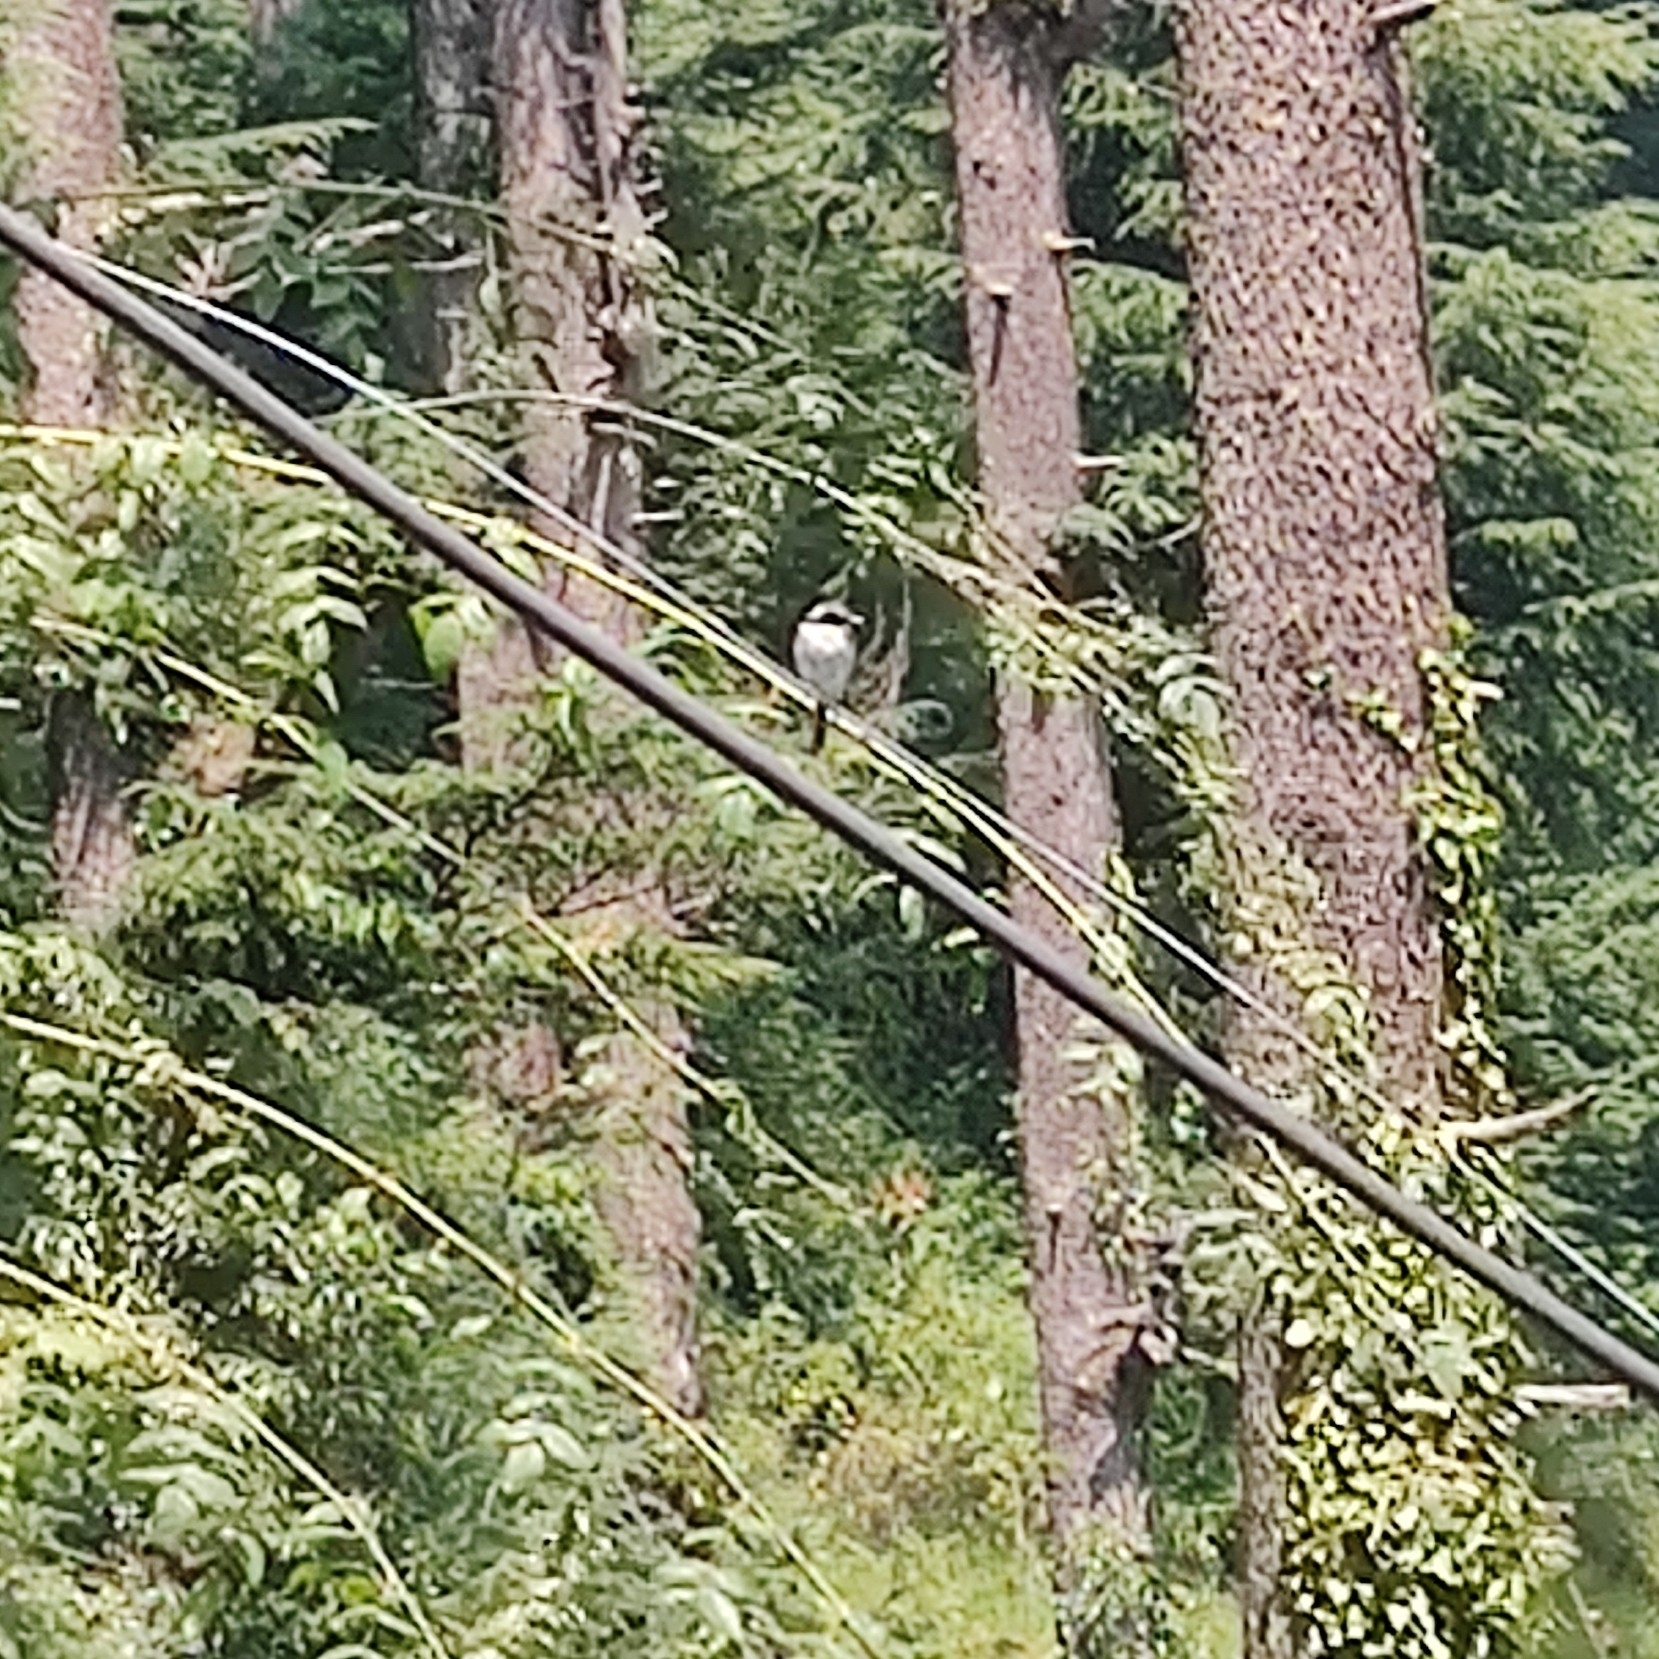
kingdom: Animalia
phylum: Chordata
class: Aves
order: Passeriformes
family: Muscicapidae
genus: Saxicola
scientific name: Saxicola ferreus
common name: Grey bush chat
